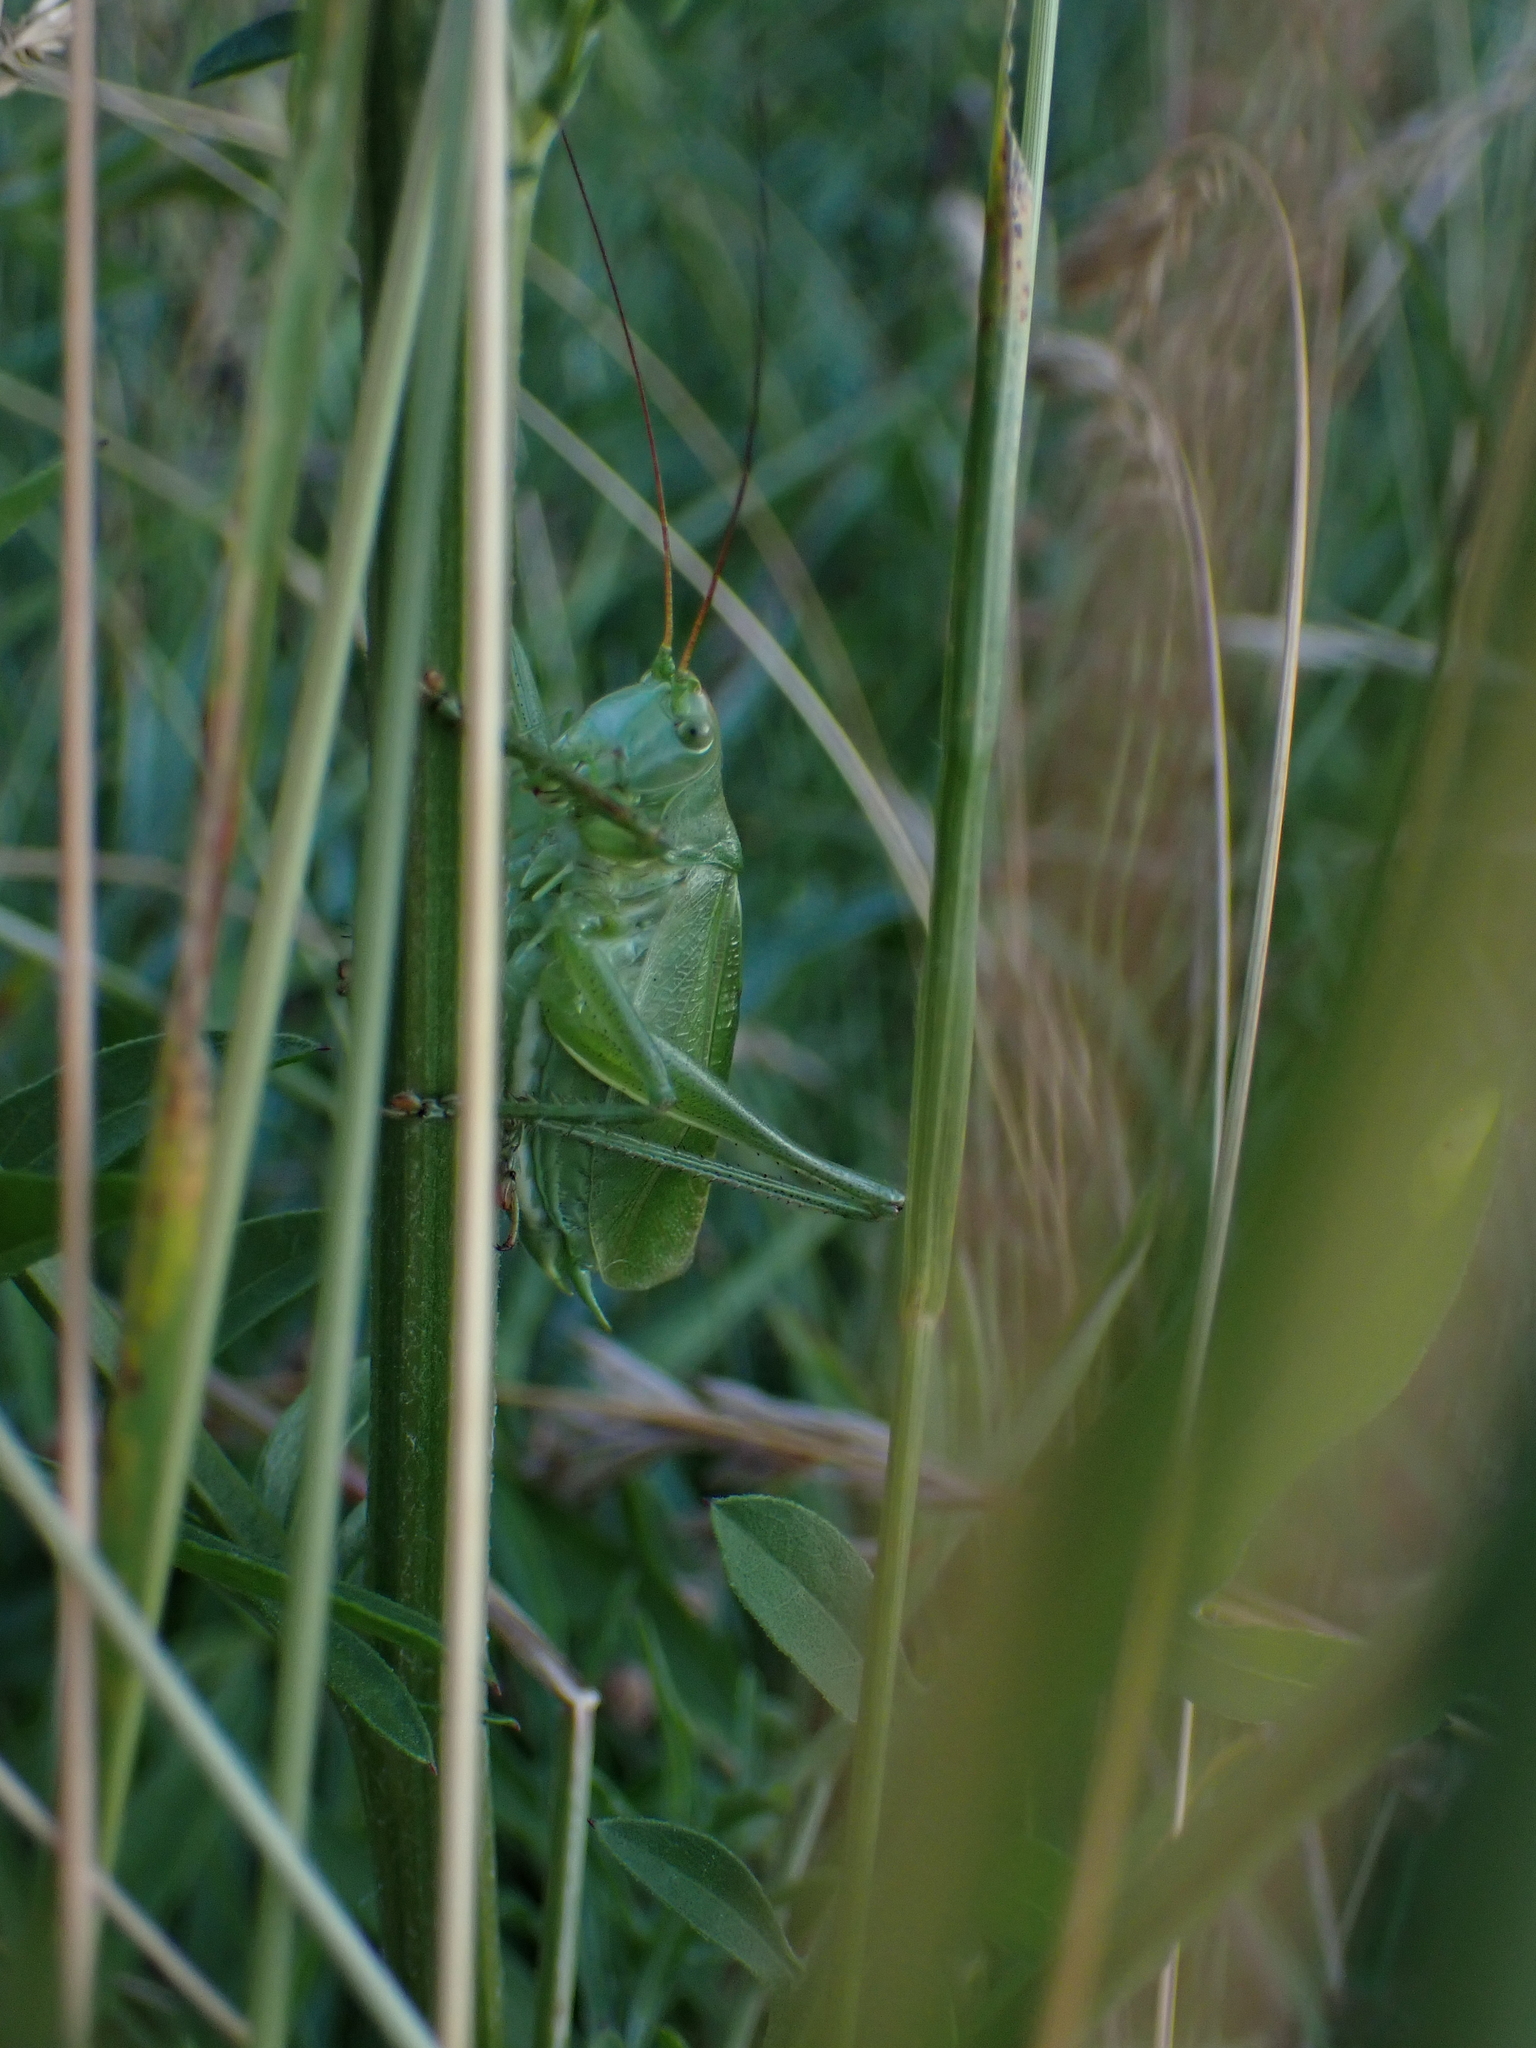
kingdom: Animalia
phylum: Arthropoda
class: Insecta
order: Orthoptera
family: Tettigoniidae
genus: Tettigonia
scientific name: Tettigonia cantans
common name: Upland green bush-cricket
